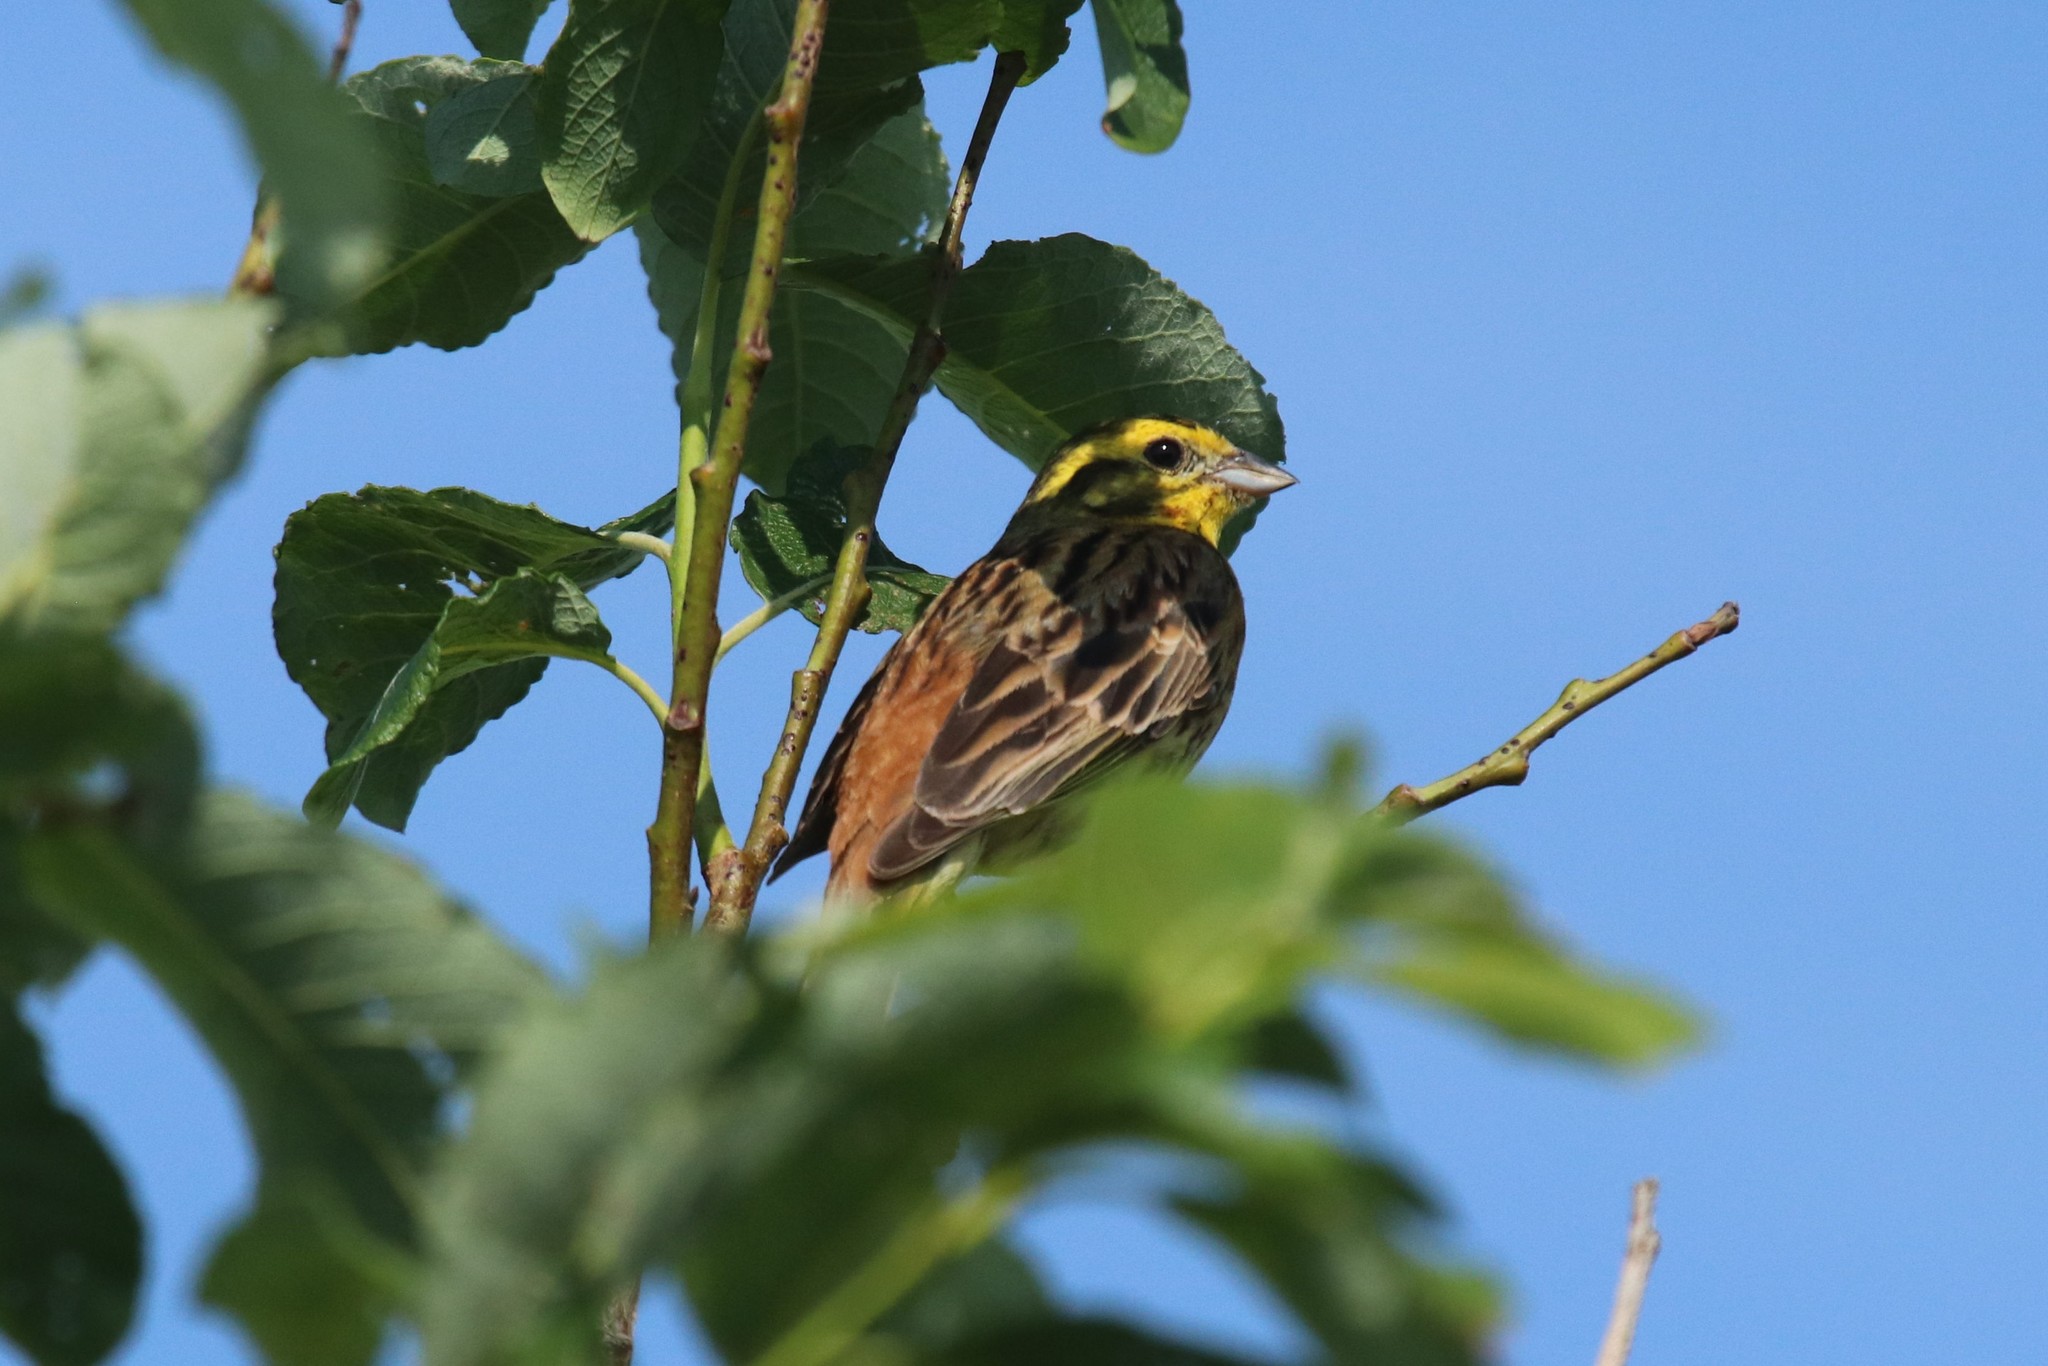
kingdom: Animalia
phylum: Chordata
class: Aves
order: Passeriformes
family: Emberizidae
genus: Emberiza
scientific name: Emberiza citrinella
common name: Yellowhammer
